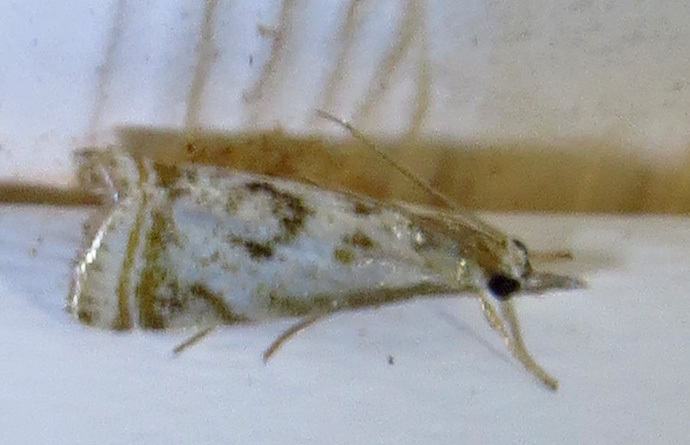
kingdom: Animalia
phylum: Arthropoda
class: Insecta
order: Lepidoptera
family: Crambidae
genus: Microcrambus
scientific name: Microcrambus elegans
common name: Elegant grass-veneer
